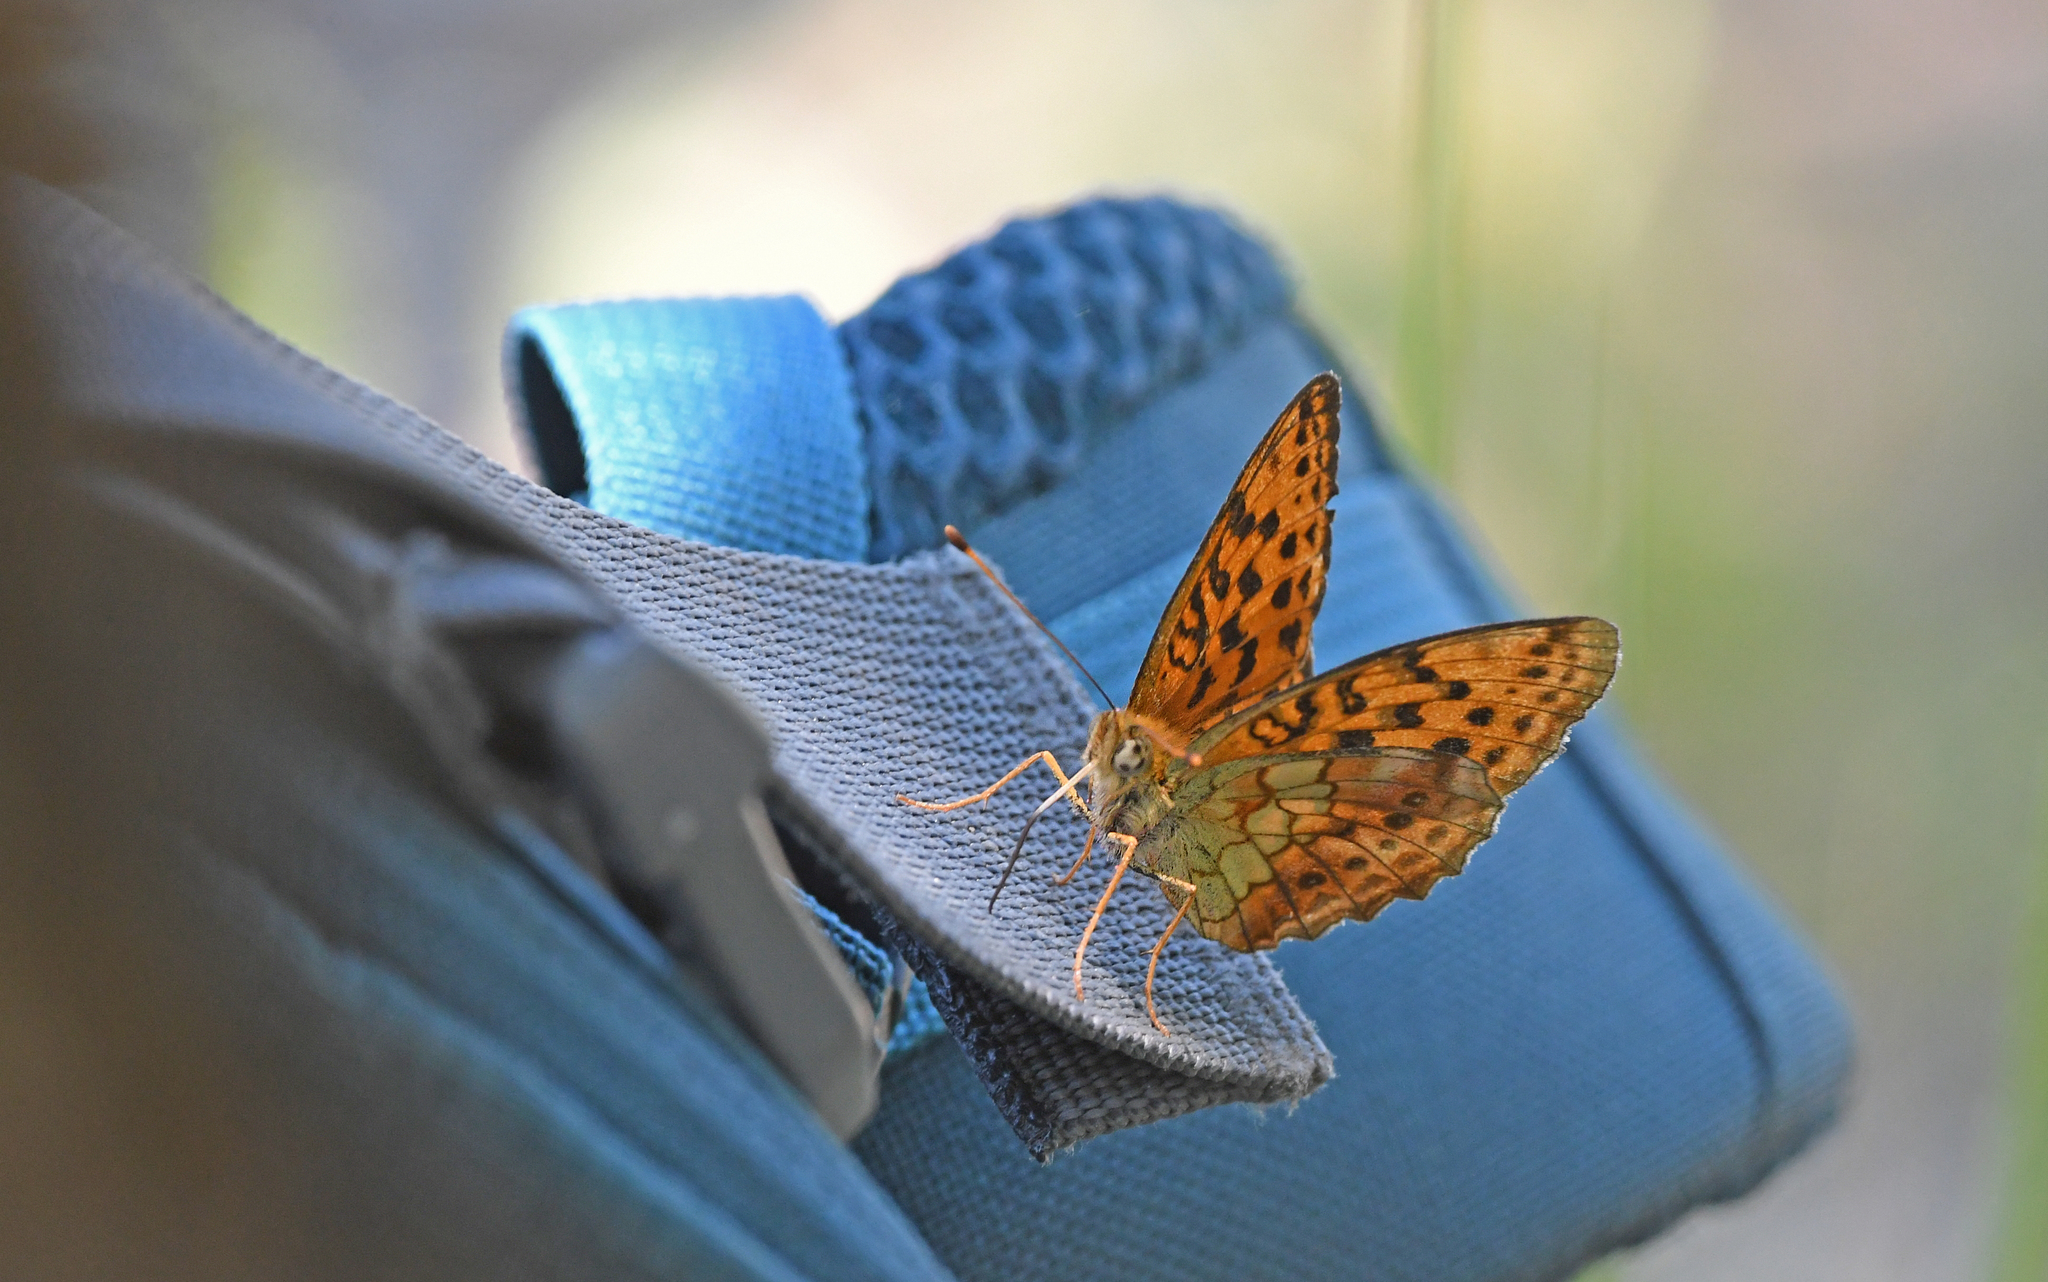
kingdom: Animalia
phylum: Arthropoda
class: Insecta
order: Lepidoptera
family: Nymphalidae
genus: Brenthis
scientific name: Brenthis daphne
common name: Marbled fritillary
